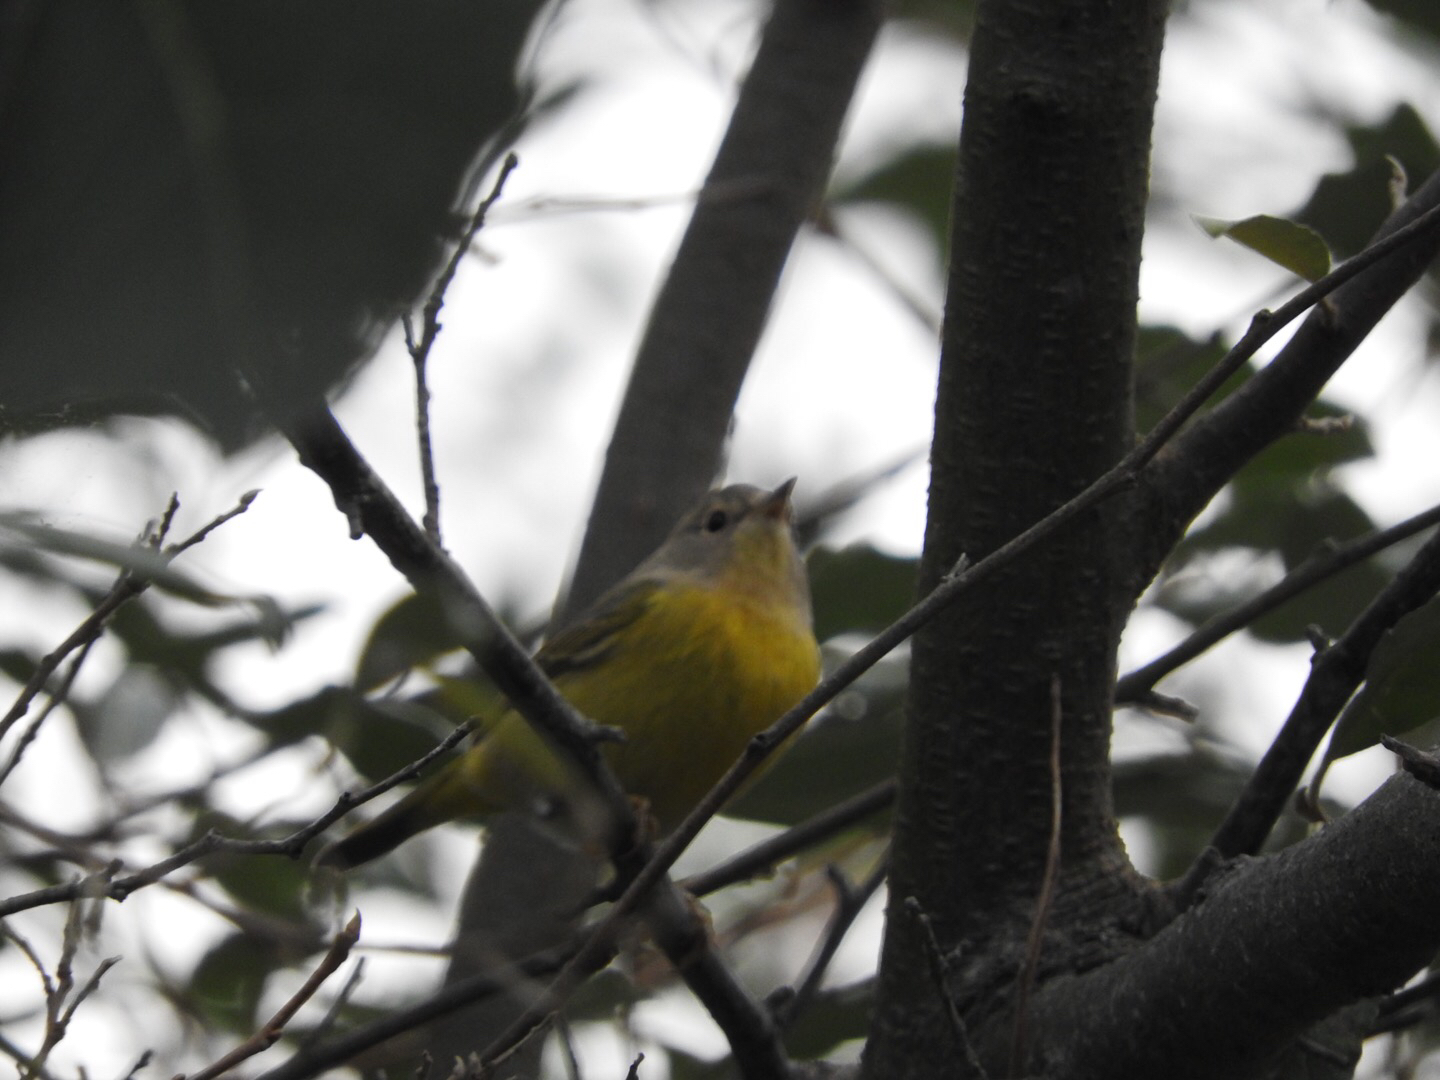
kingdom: Animalia
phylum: Chordata
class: Aves
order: Passeriformes
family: Parulidae
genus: Leiothlypis
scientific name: Leiothlypis ruficapilla
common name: Nashville warbler
